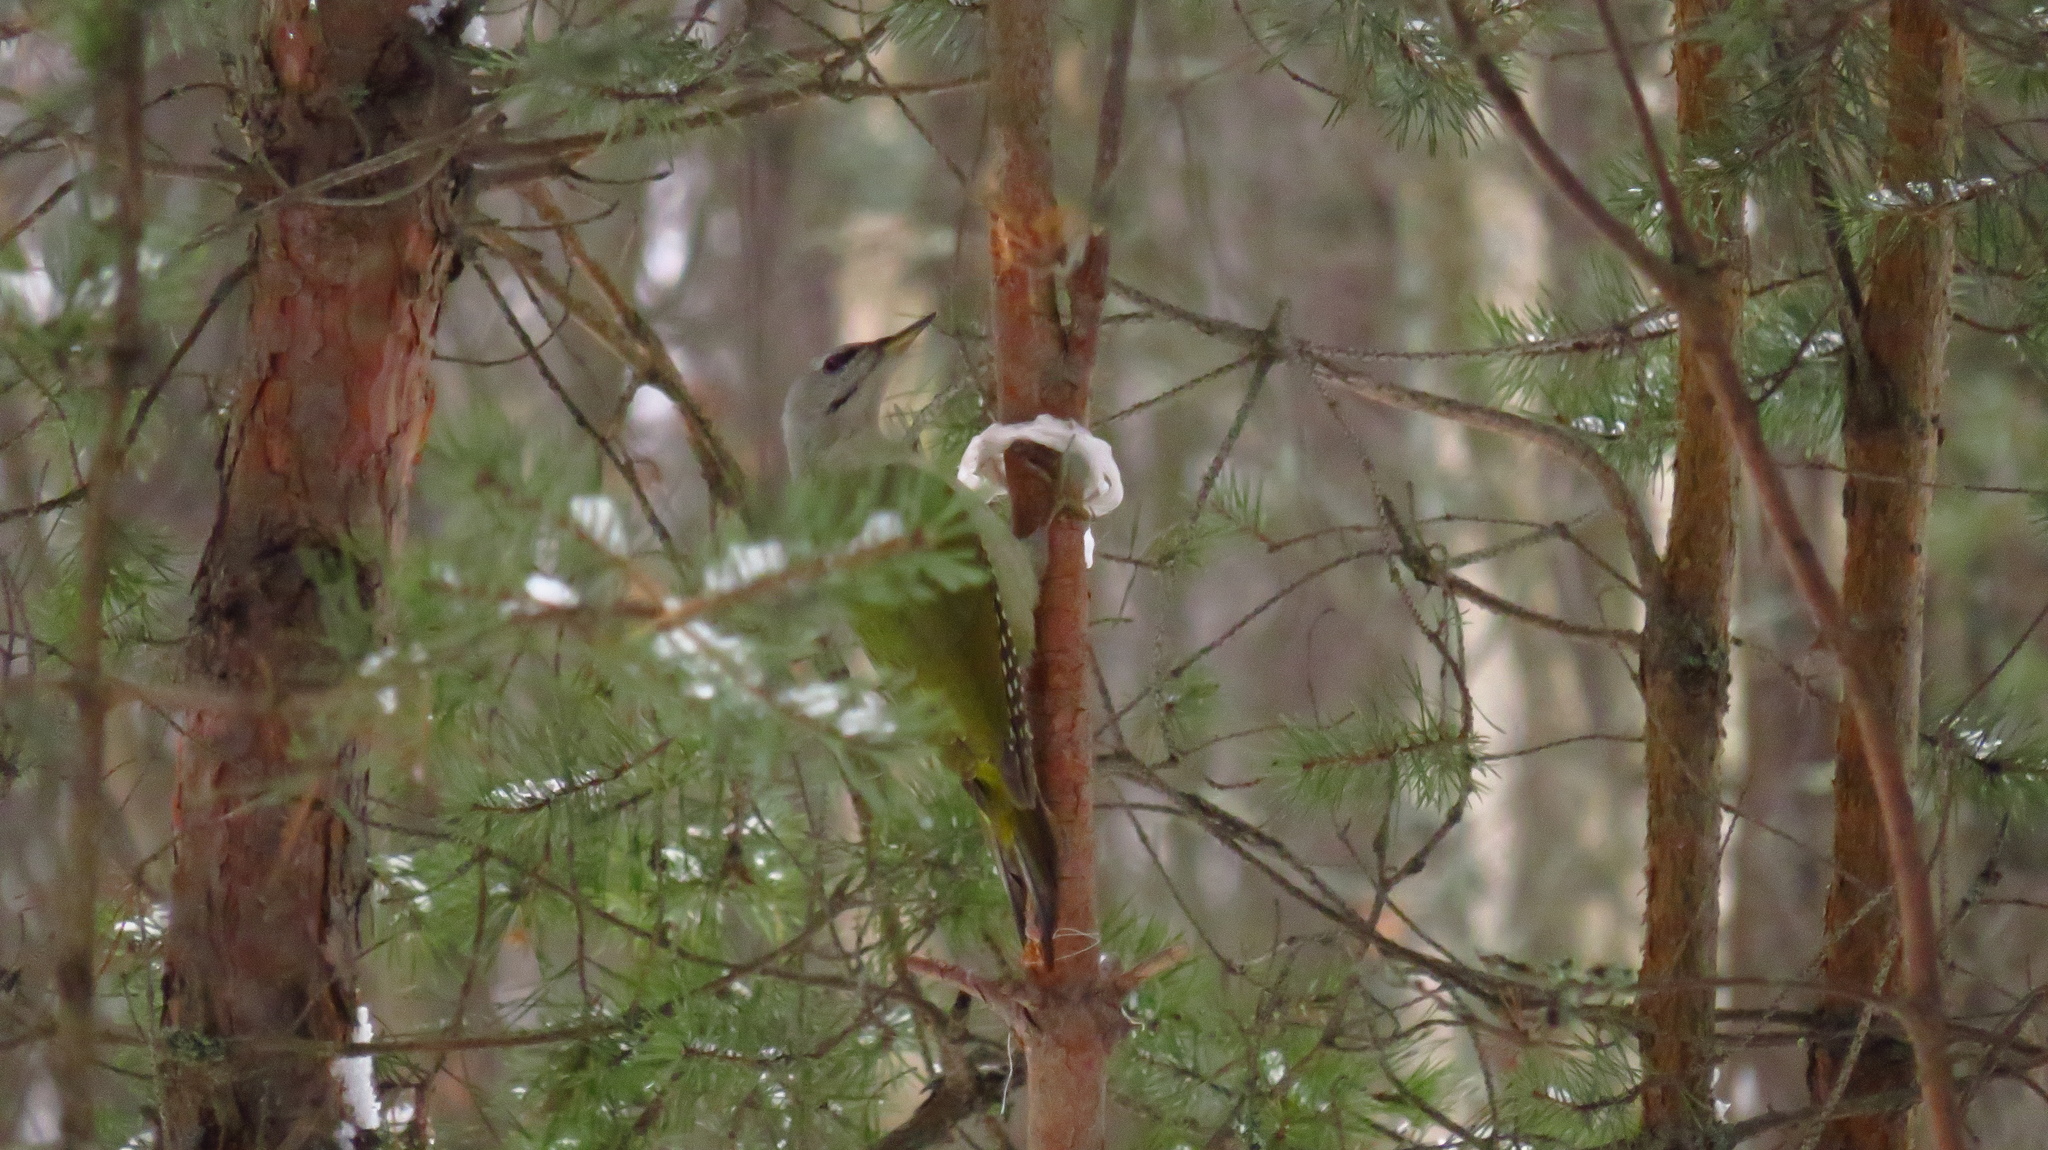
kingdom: Animalia
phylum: Chordata
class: Aves
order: Piciformes
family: Picidae
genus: Picus
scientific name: Picus canus
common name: Grey-headed woodpecker
